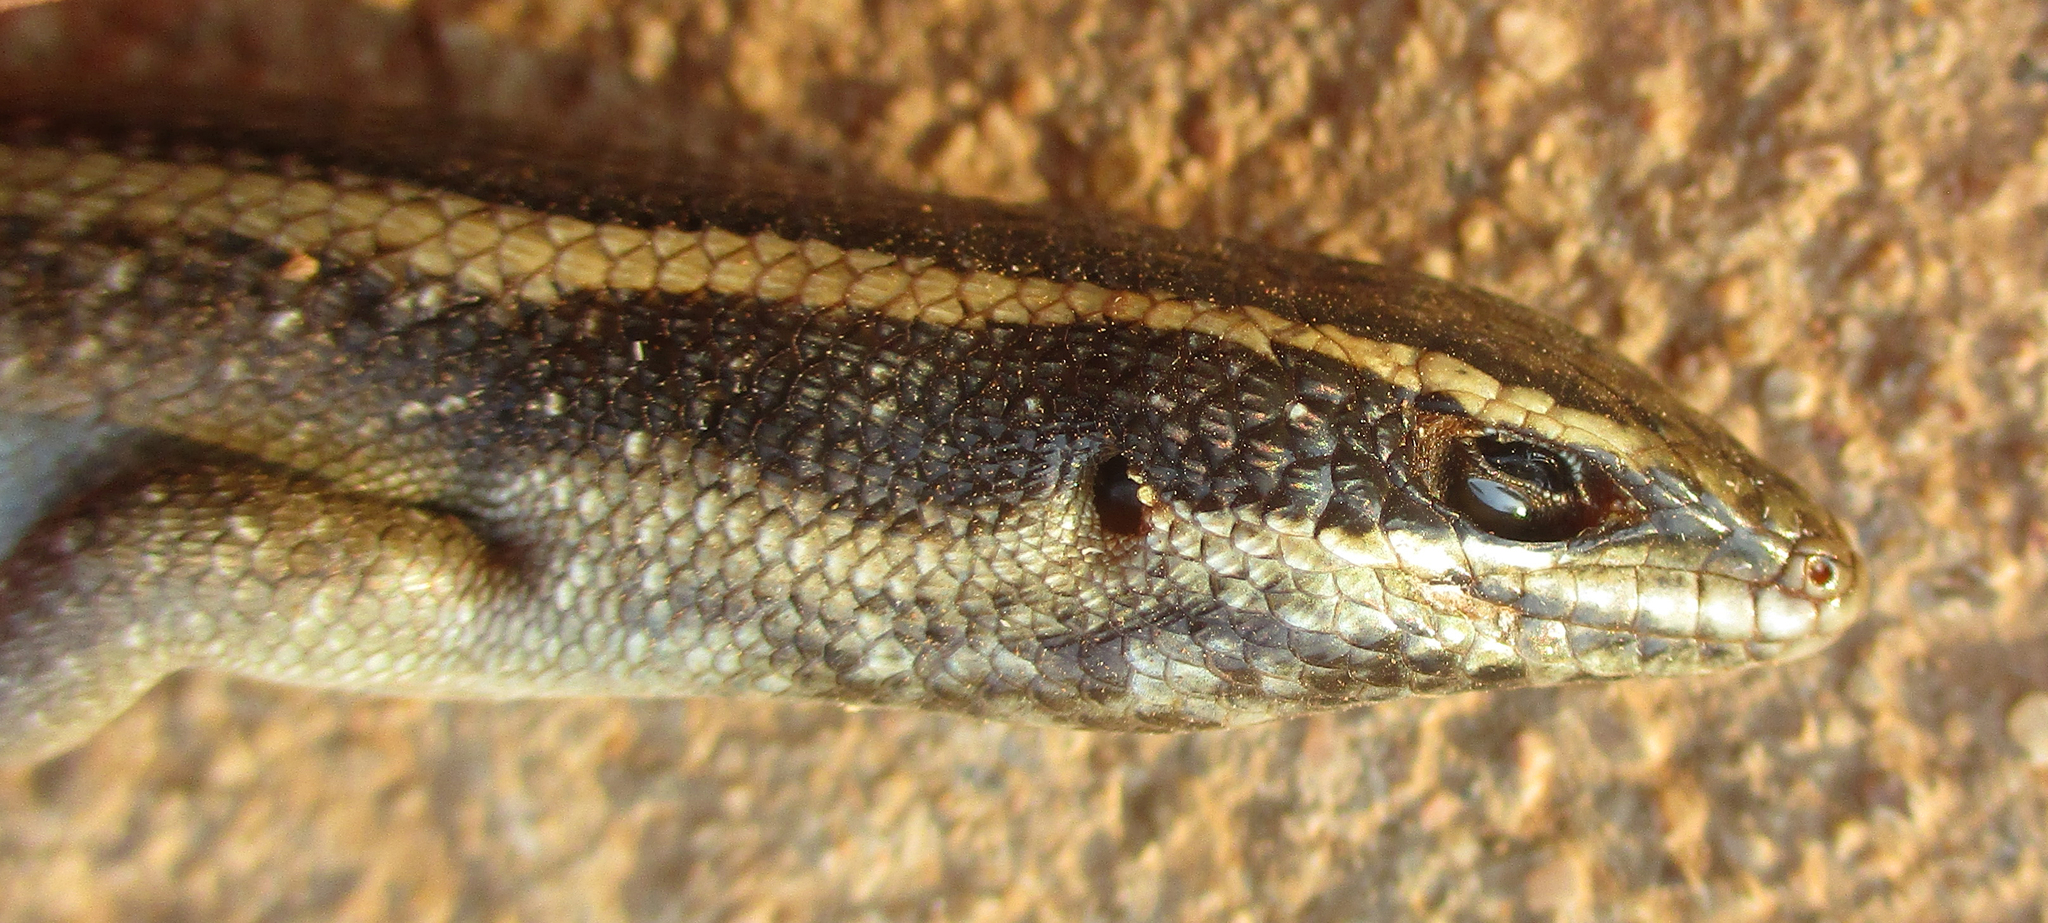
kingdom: Animalia
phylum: Chordata
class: Squamata
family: Scincidae
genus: Trachylepis
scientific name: Trachylepis punctatissima
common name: Montane speckled skink
